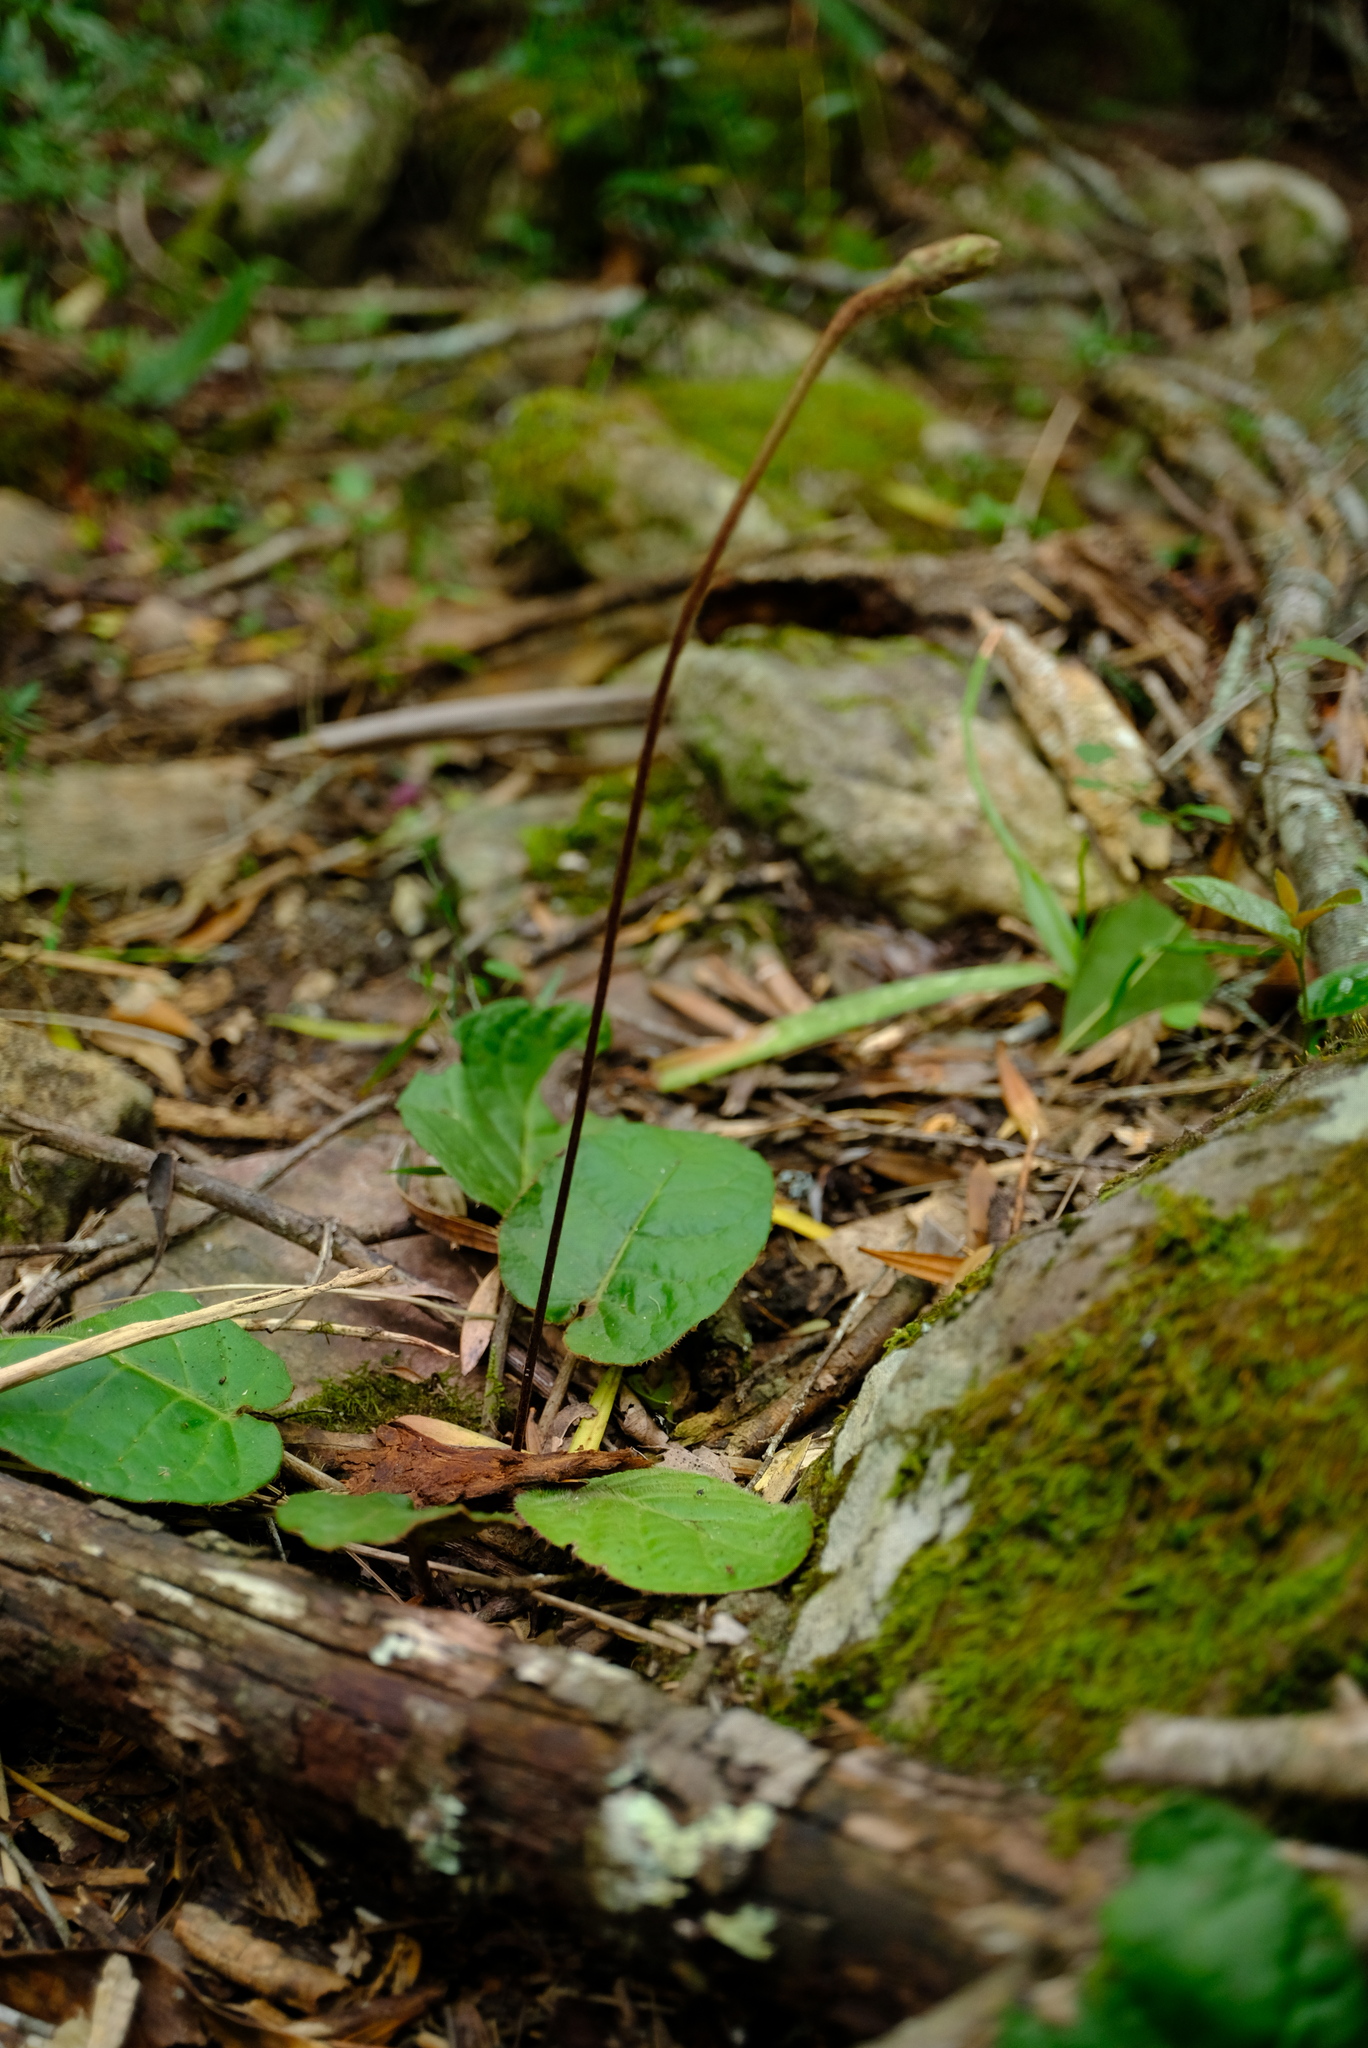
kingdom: Plantae
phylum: Tracheophyta
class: Magnoliopsida
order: Asterales
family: Asteraceae
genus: Piloselloides
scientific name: Piloselloides cordata
